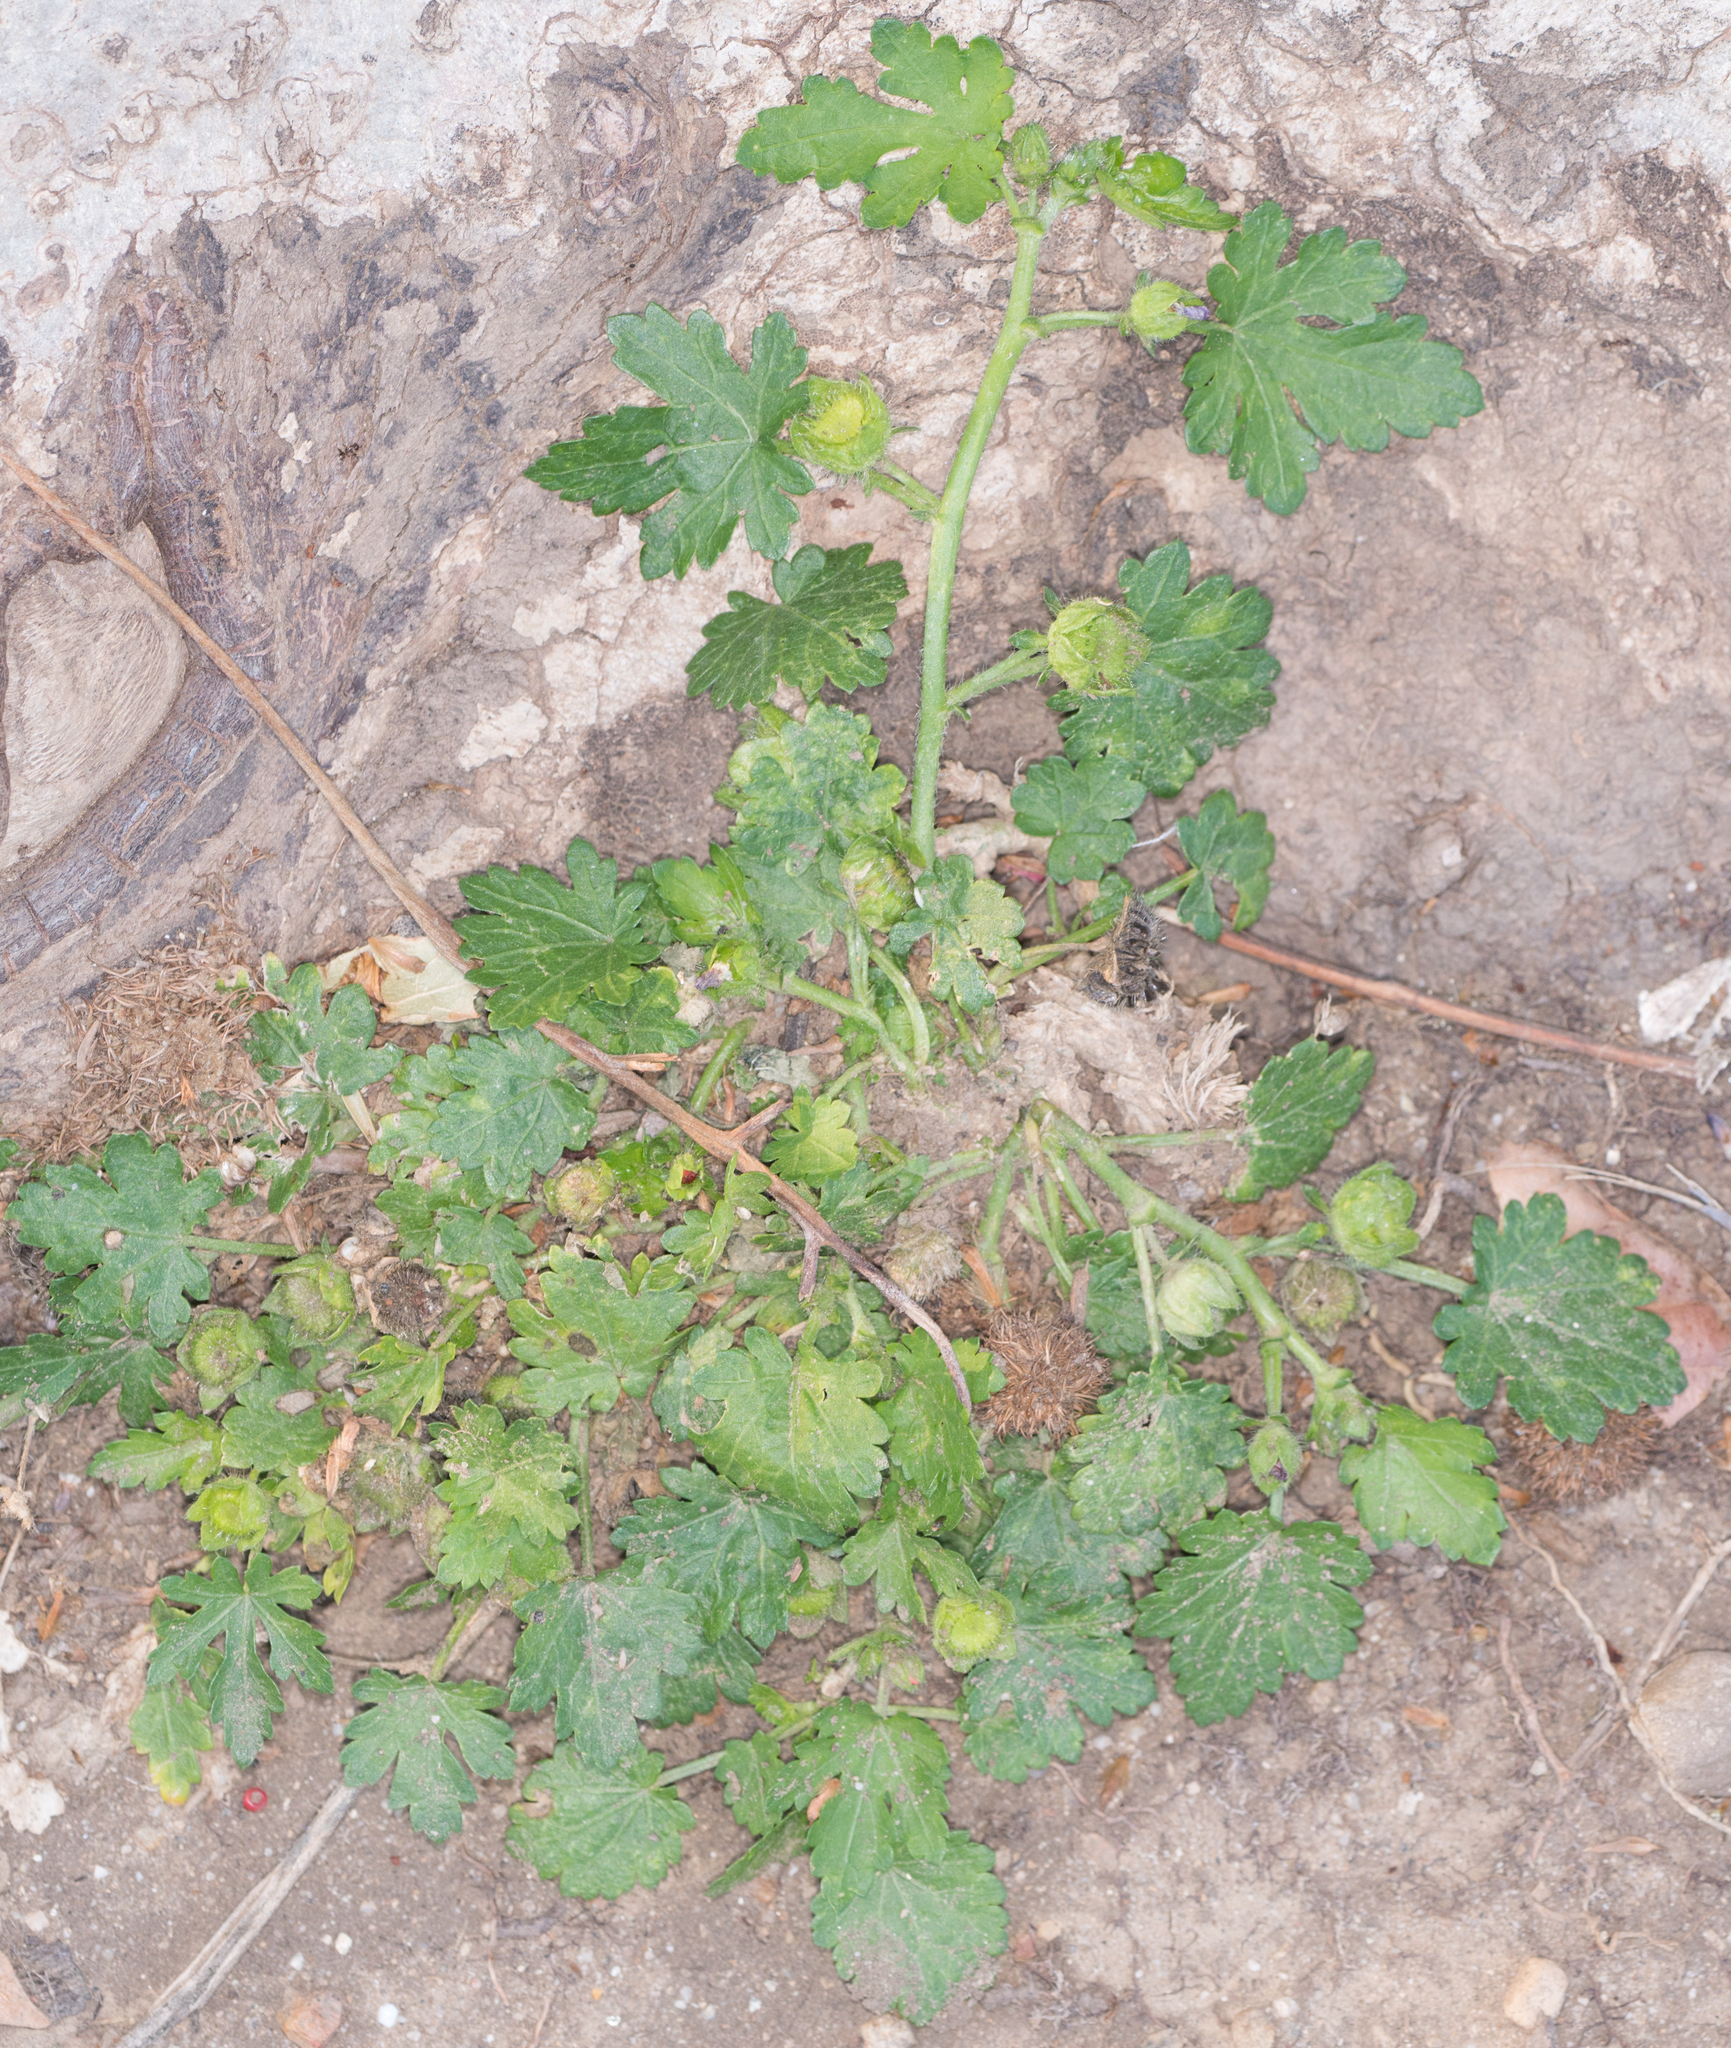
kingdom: Plantae
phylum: Tracheophyta
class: Magnoliopsida
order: Malvales
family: Malvaceae
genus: Modiola
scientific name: Modiola caroliniana
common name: Carolina bristlemallow
